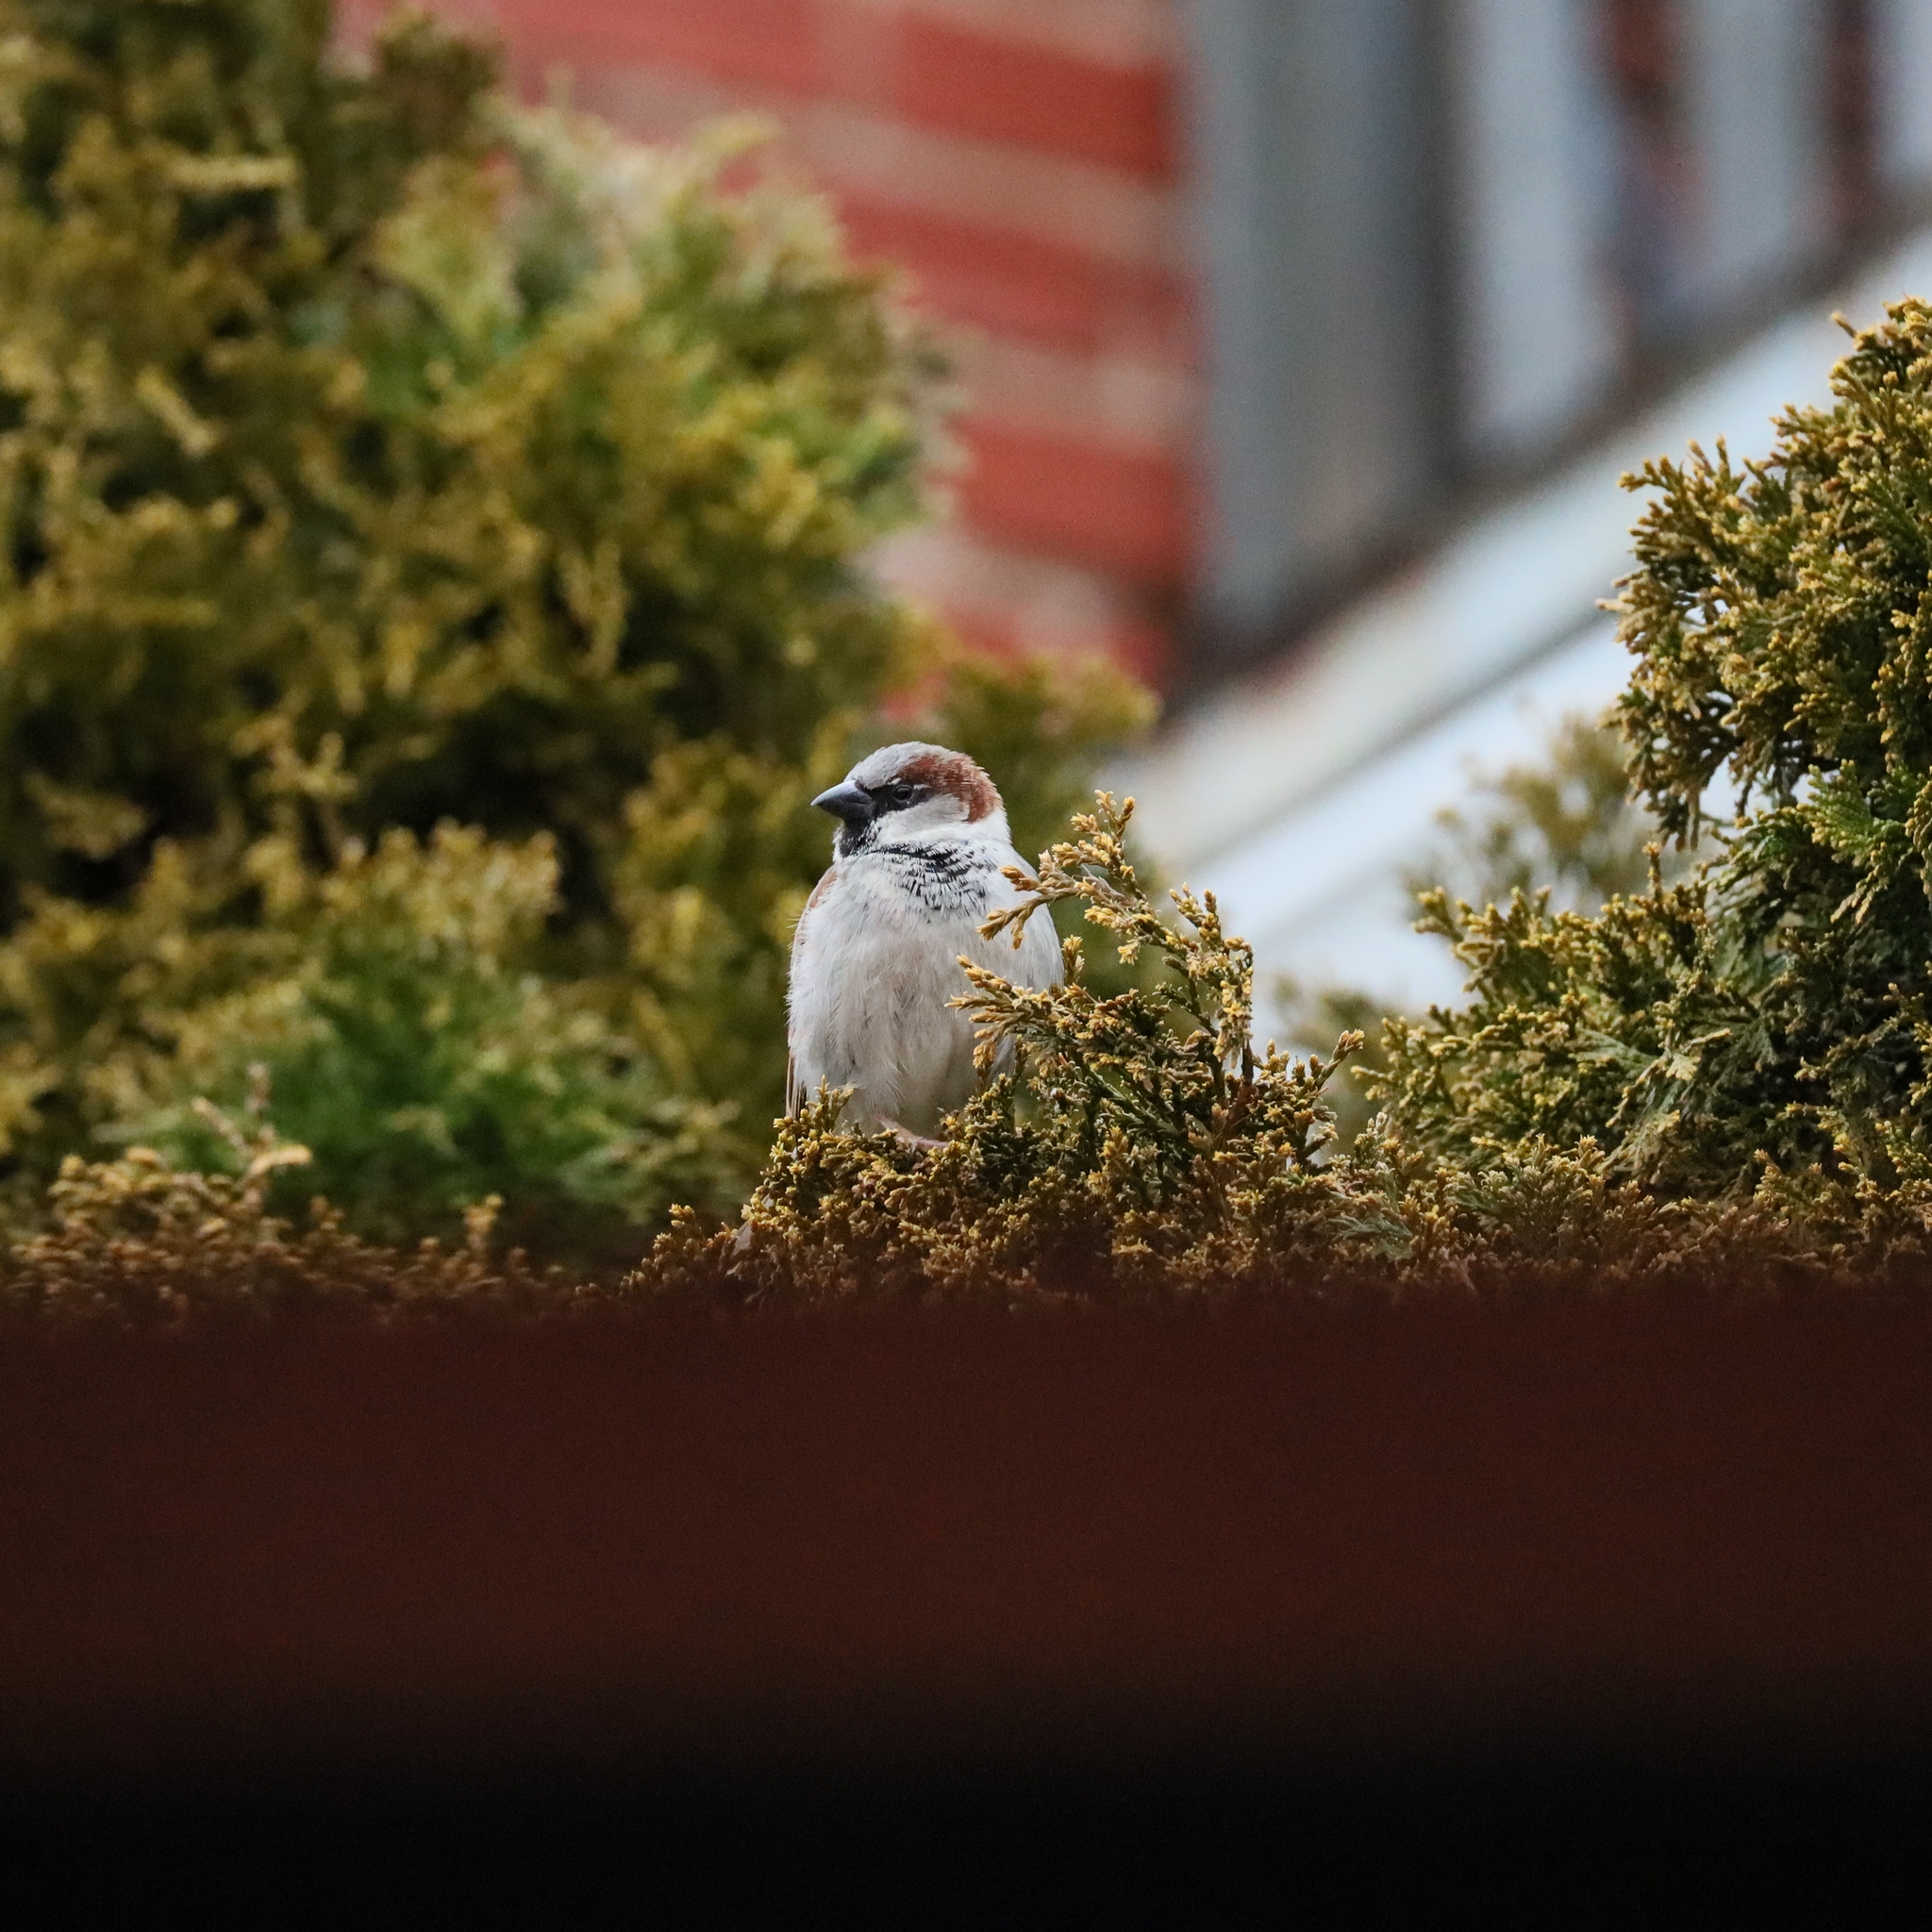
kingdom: Animalia
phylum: Chordata
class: Aves
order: Passeriformes
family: Passeridae
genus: Passer
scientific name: Passer domesticus
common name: House sparrow
